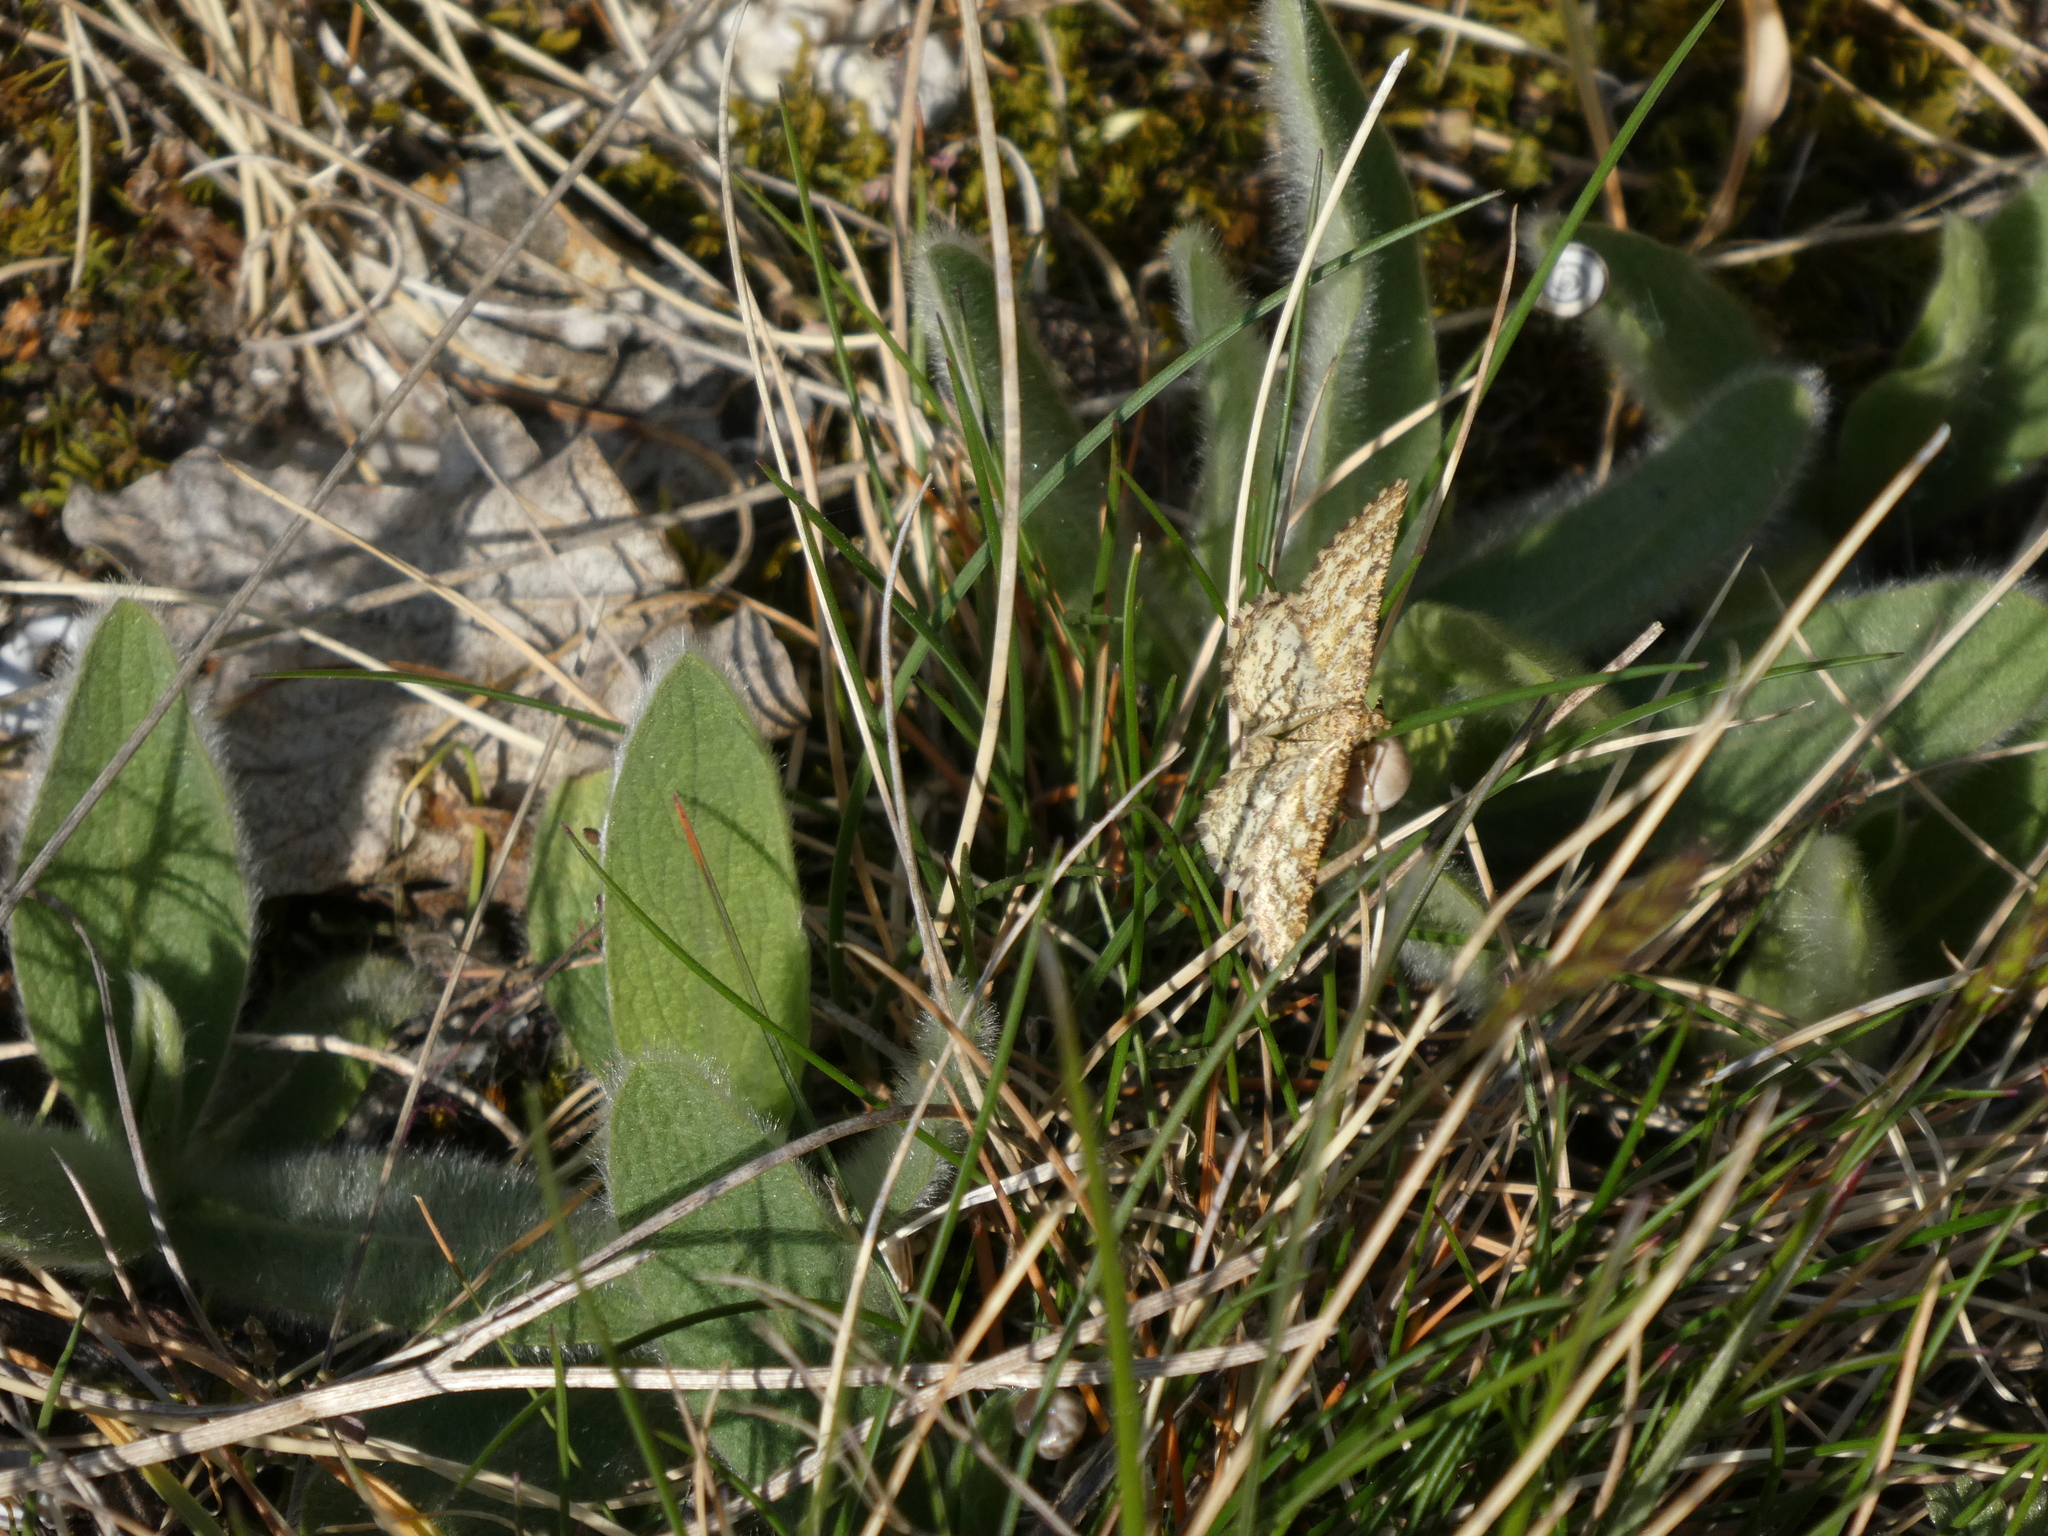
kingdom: Animalia
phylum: Arthropoda
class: Insecta
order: Lepidoptera
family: Geometridae
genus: Heliomata
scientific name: Heliomata glarearia
